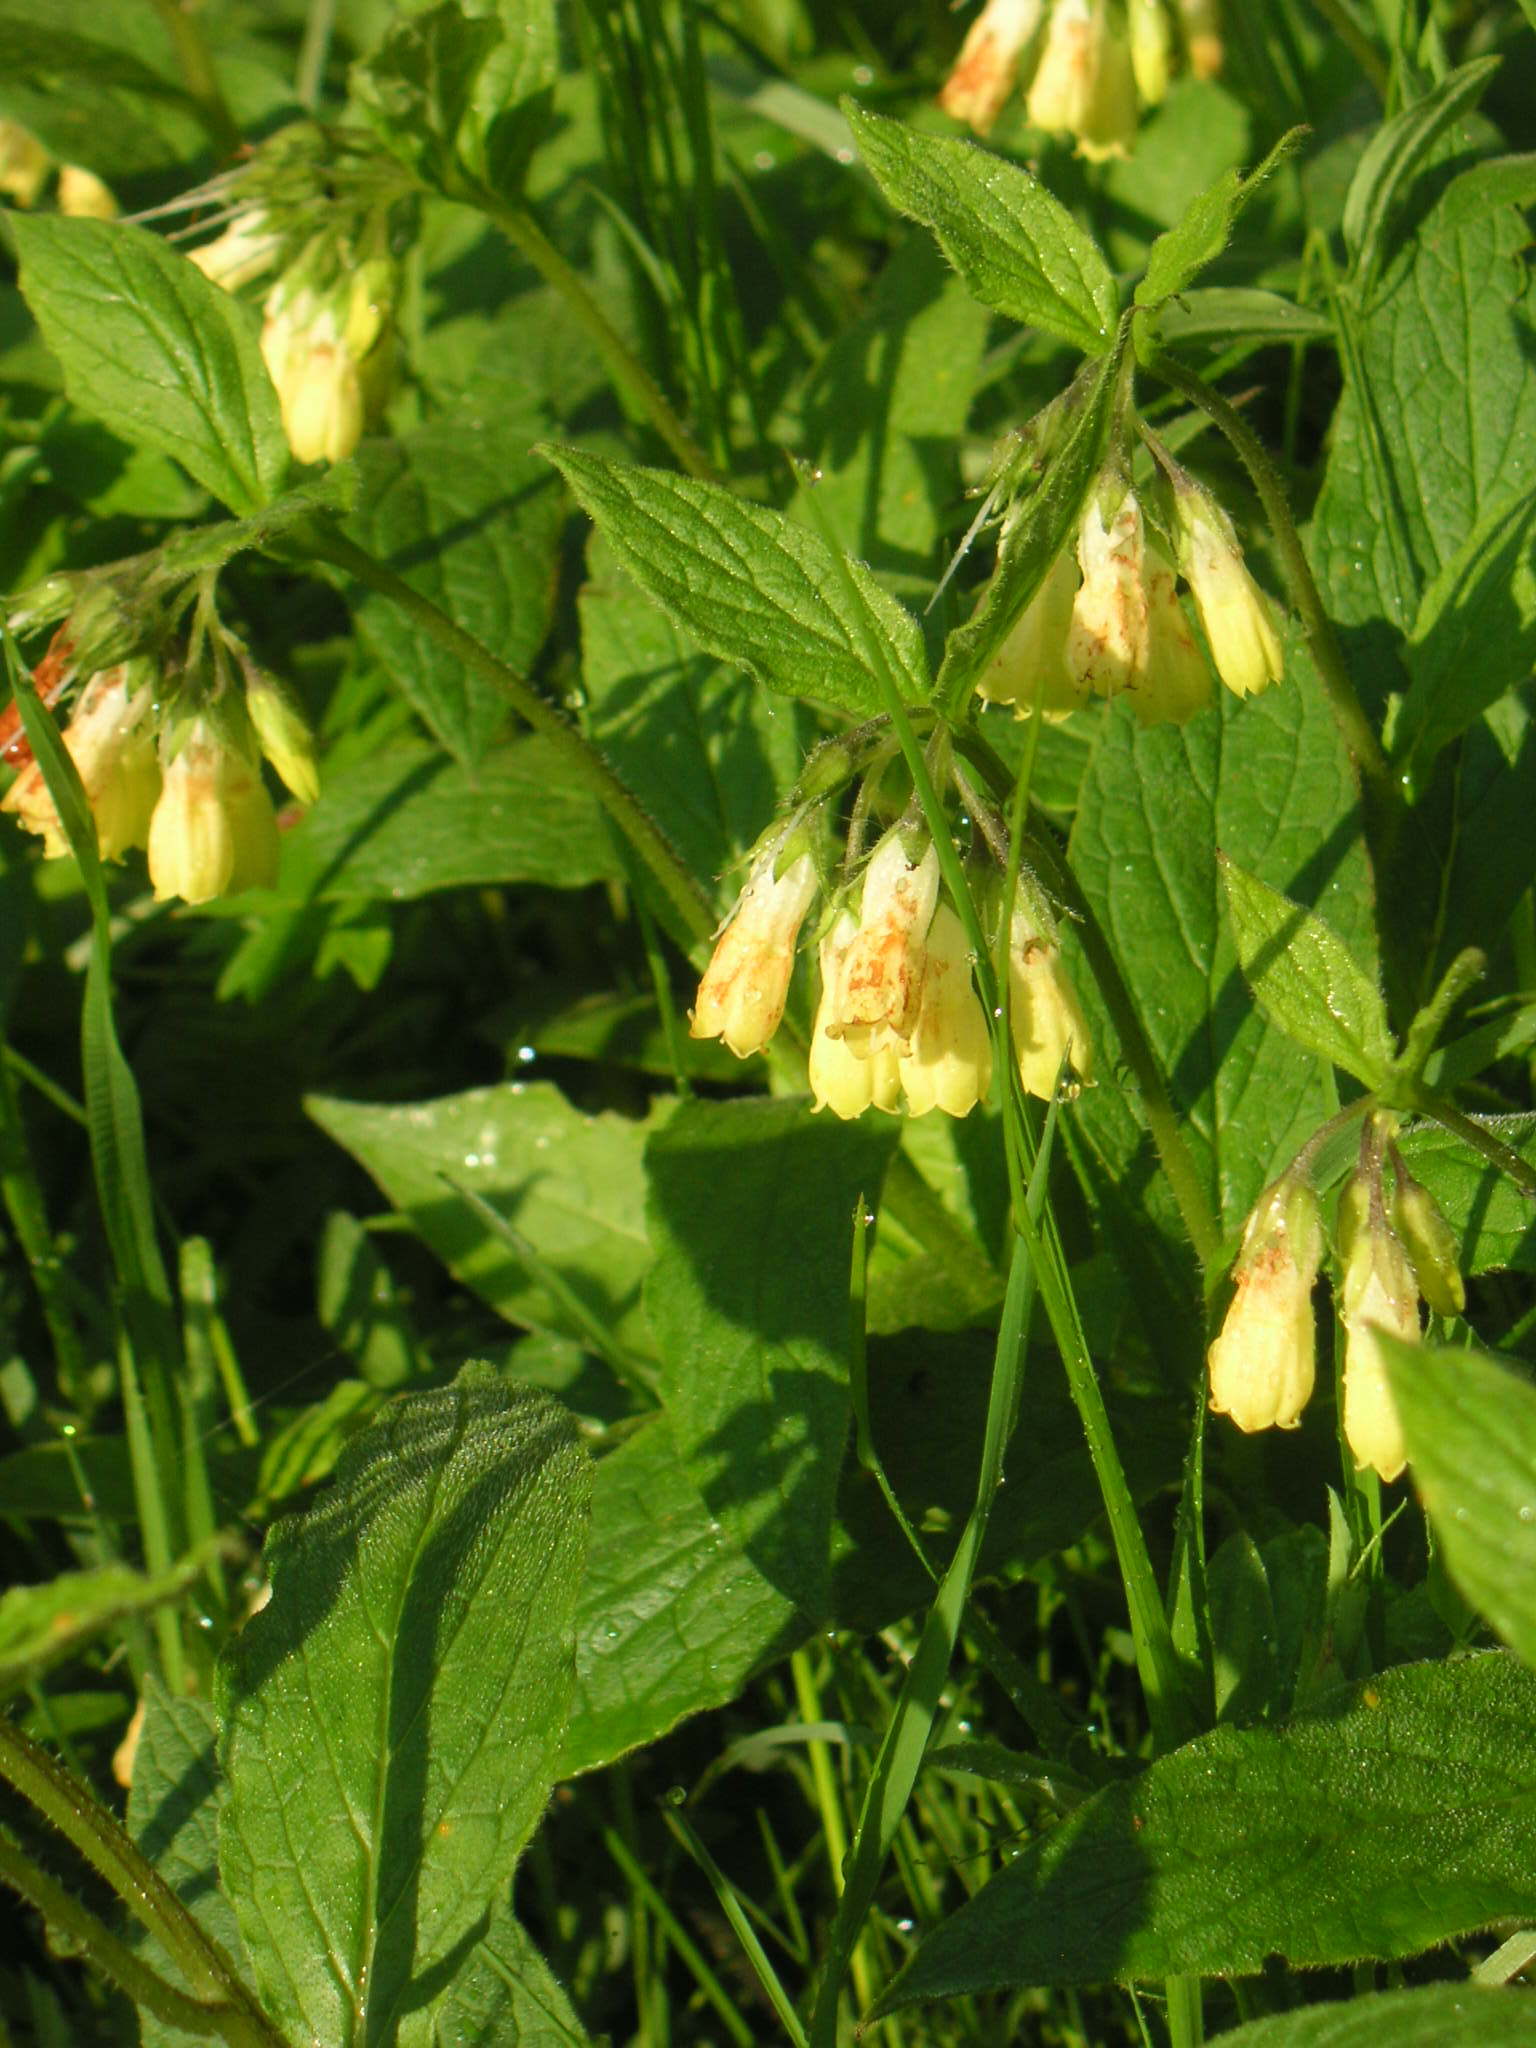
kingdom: Plantae
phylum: Tracheophyta
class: Magnoliopsida
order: Boraginales
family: Boraginaceae
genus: Symphytum
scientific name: Symphytum tuberosum
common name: Tuberous comfrey
